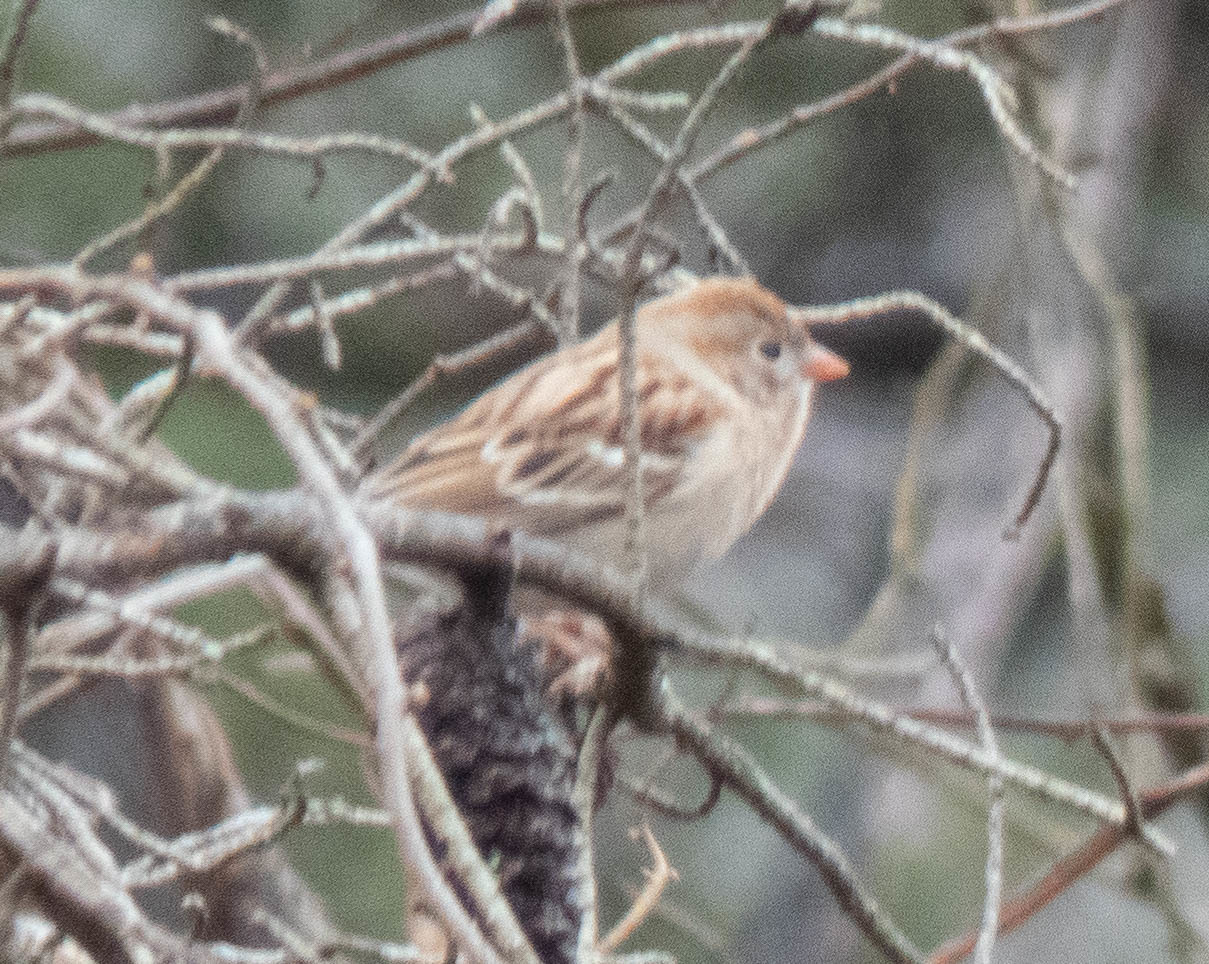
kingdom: Animalia
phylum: Chordata
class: Aves
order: Passeriformes
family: Passerellidae
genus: Spizella
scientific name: Spizella pusilla
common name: Field sparrow
